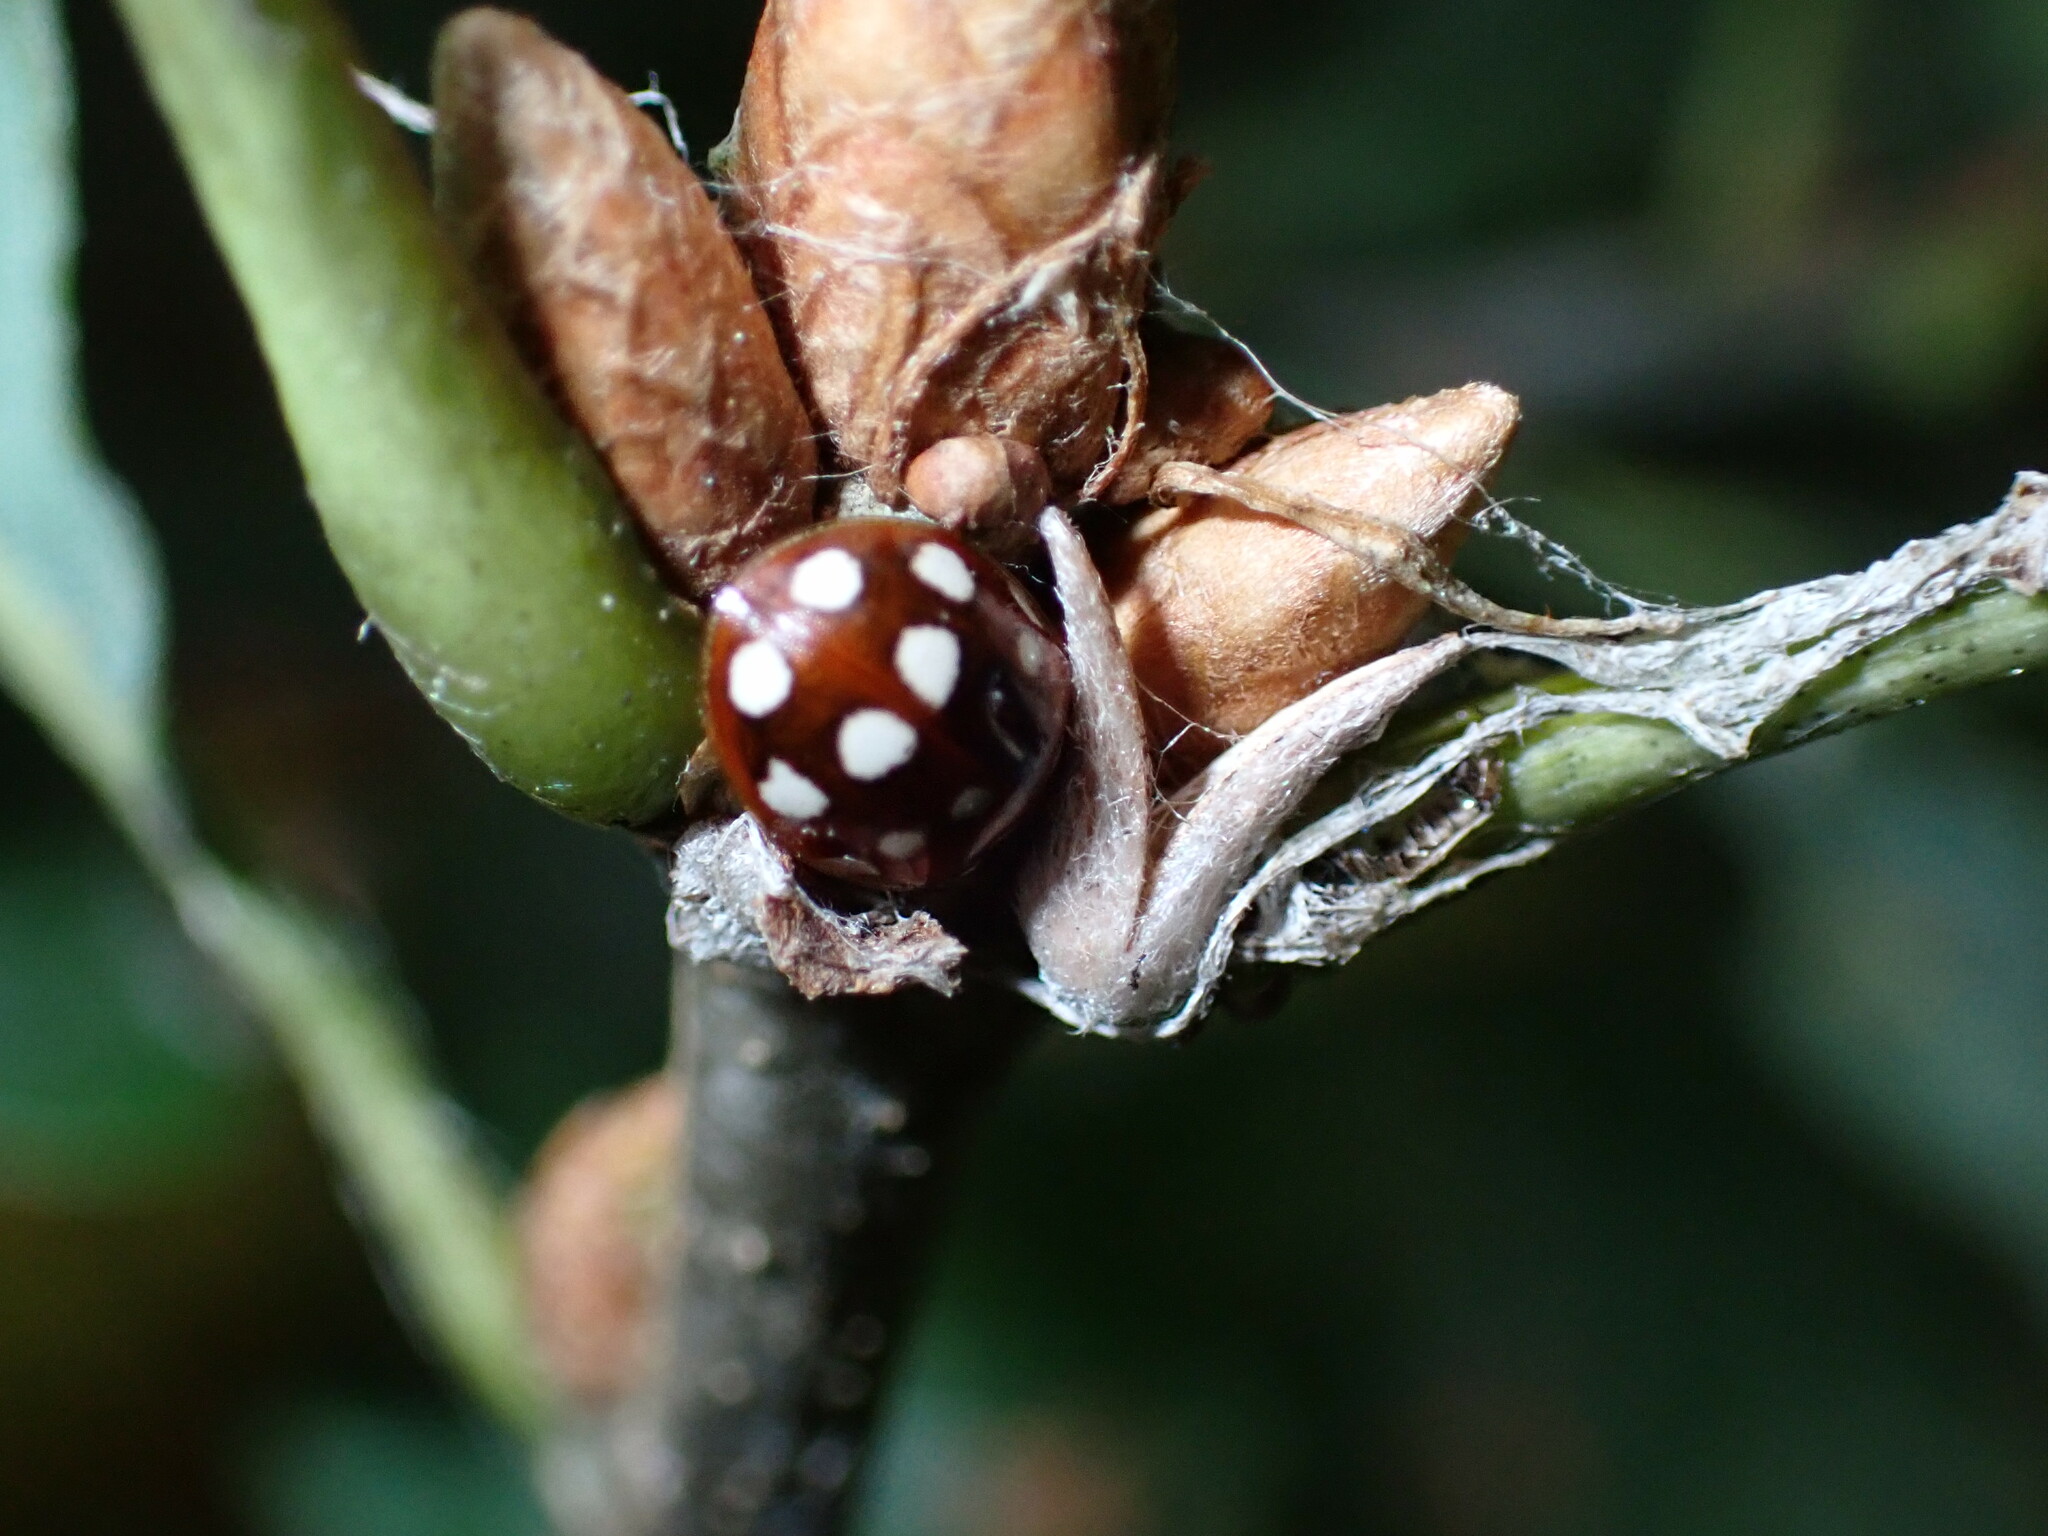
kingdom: Animalia
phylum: Arthropoda
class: Insecta
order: Coleoptera
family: Coccinellidae
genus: Calvia
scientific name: Calvia quatuordecimguttata
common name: Cream-spot ladybird
